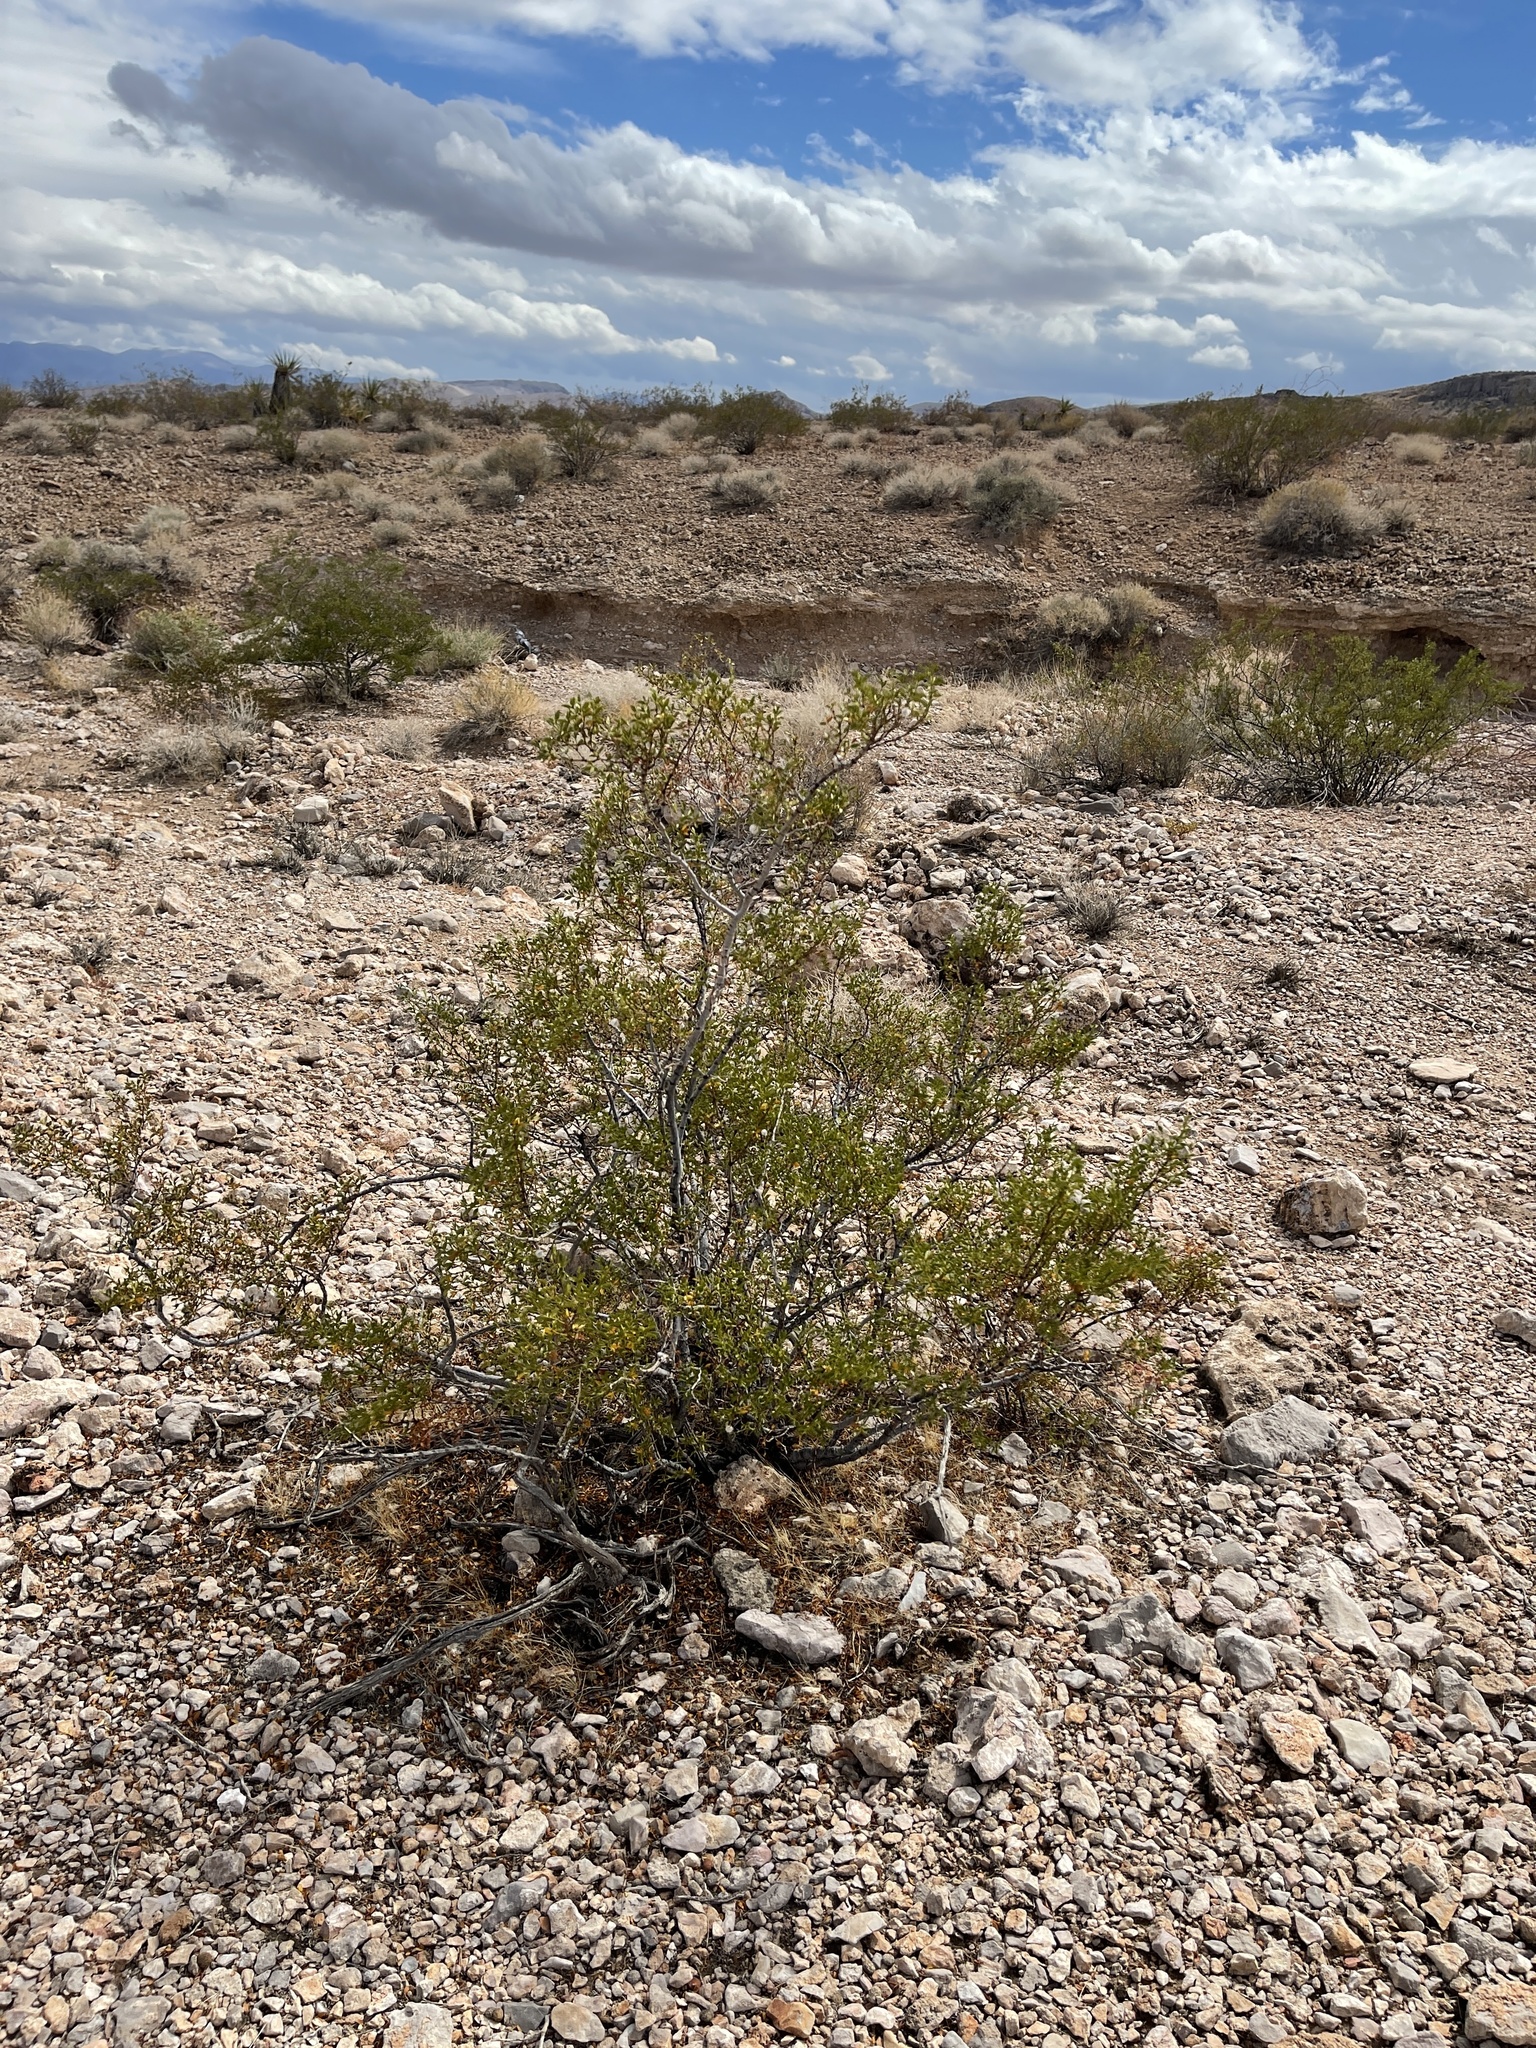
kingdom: Plantae
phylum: Tracheophyta
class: Magnoliopsida
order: Zygophyllales
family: Zygophyllaceae
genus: Larrea
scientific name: Larrea tridentata
